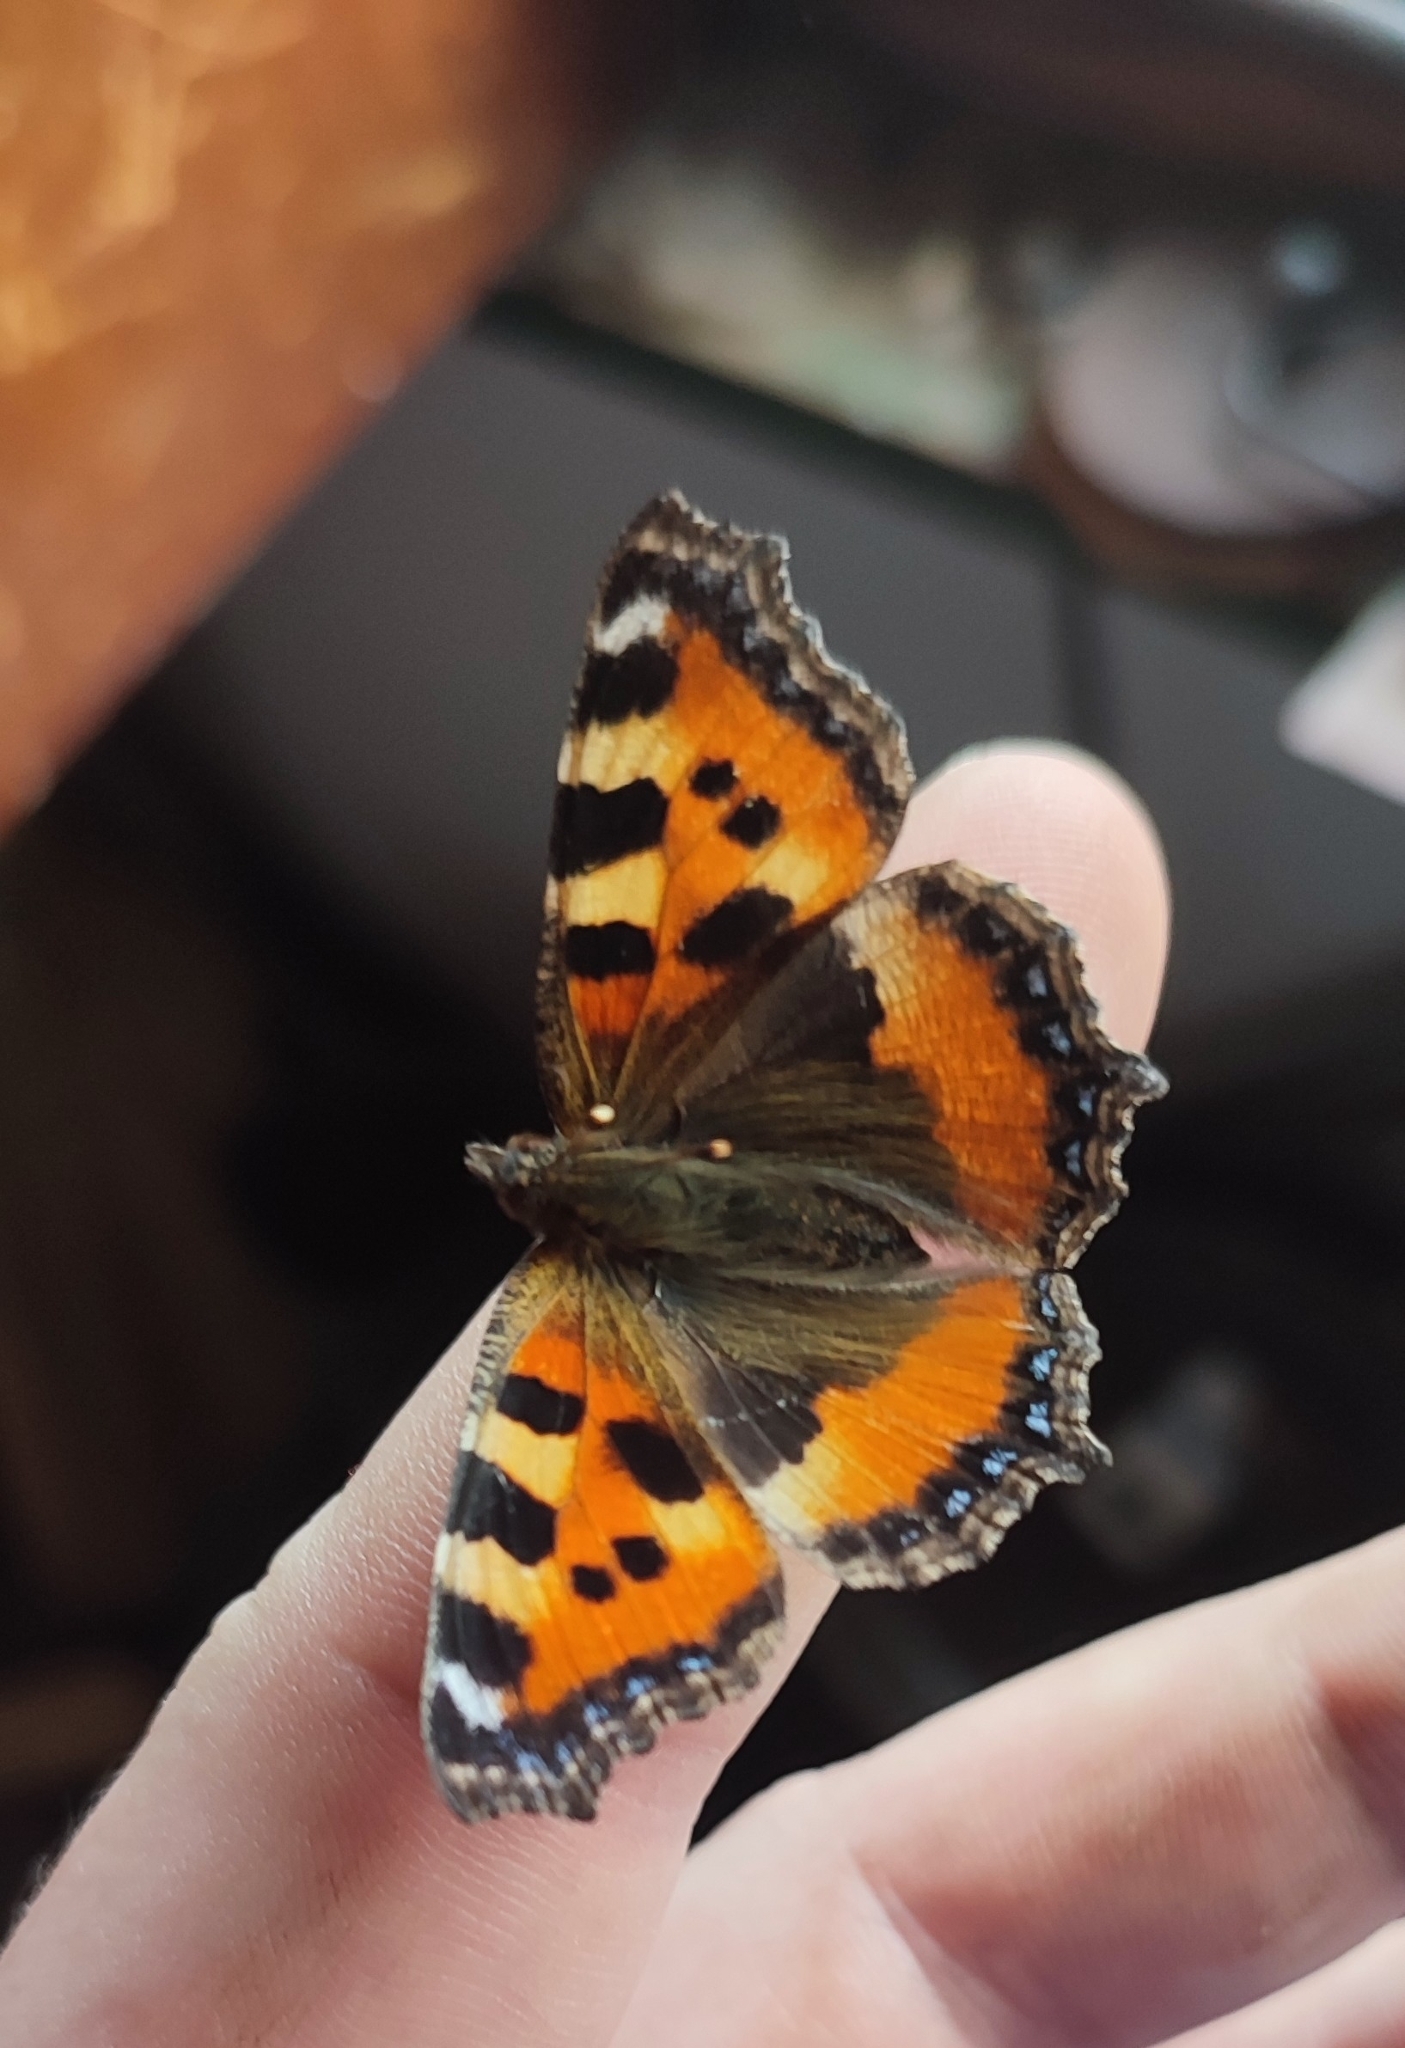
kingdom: Animalia
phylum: Arthropoda
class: Insecta
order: Lepidoptera
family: Nymphalidae
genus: Aglais
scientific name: Aglais urticae
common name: Small tortoiseshell
